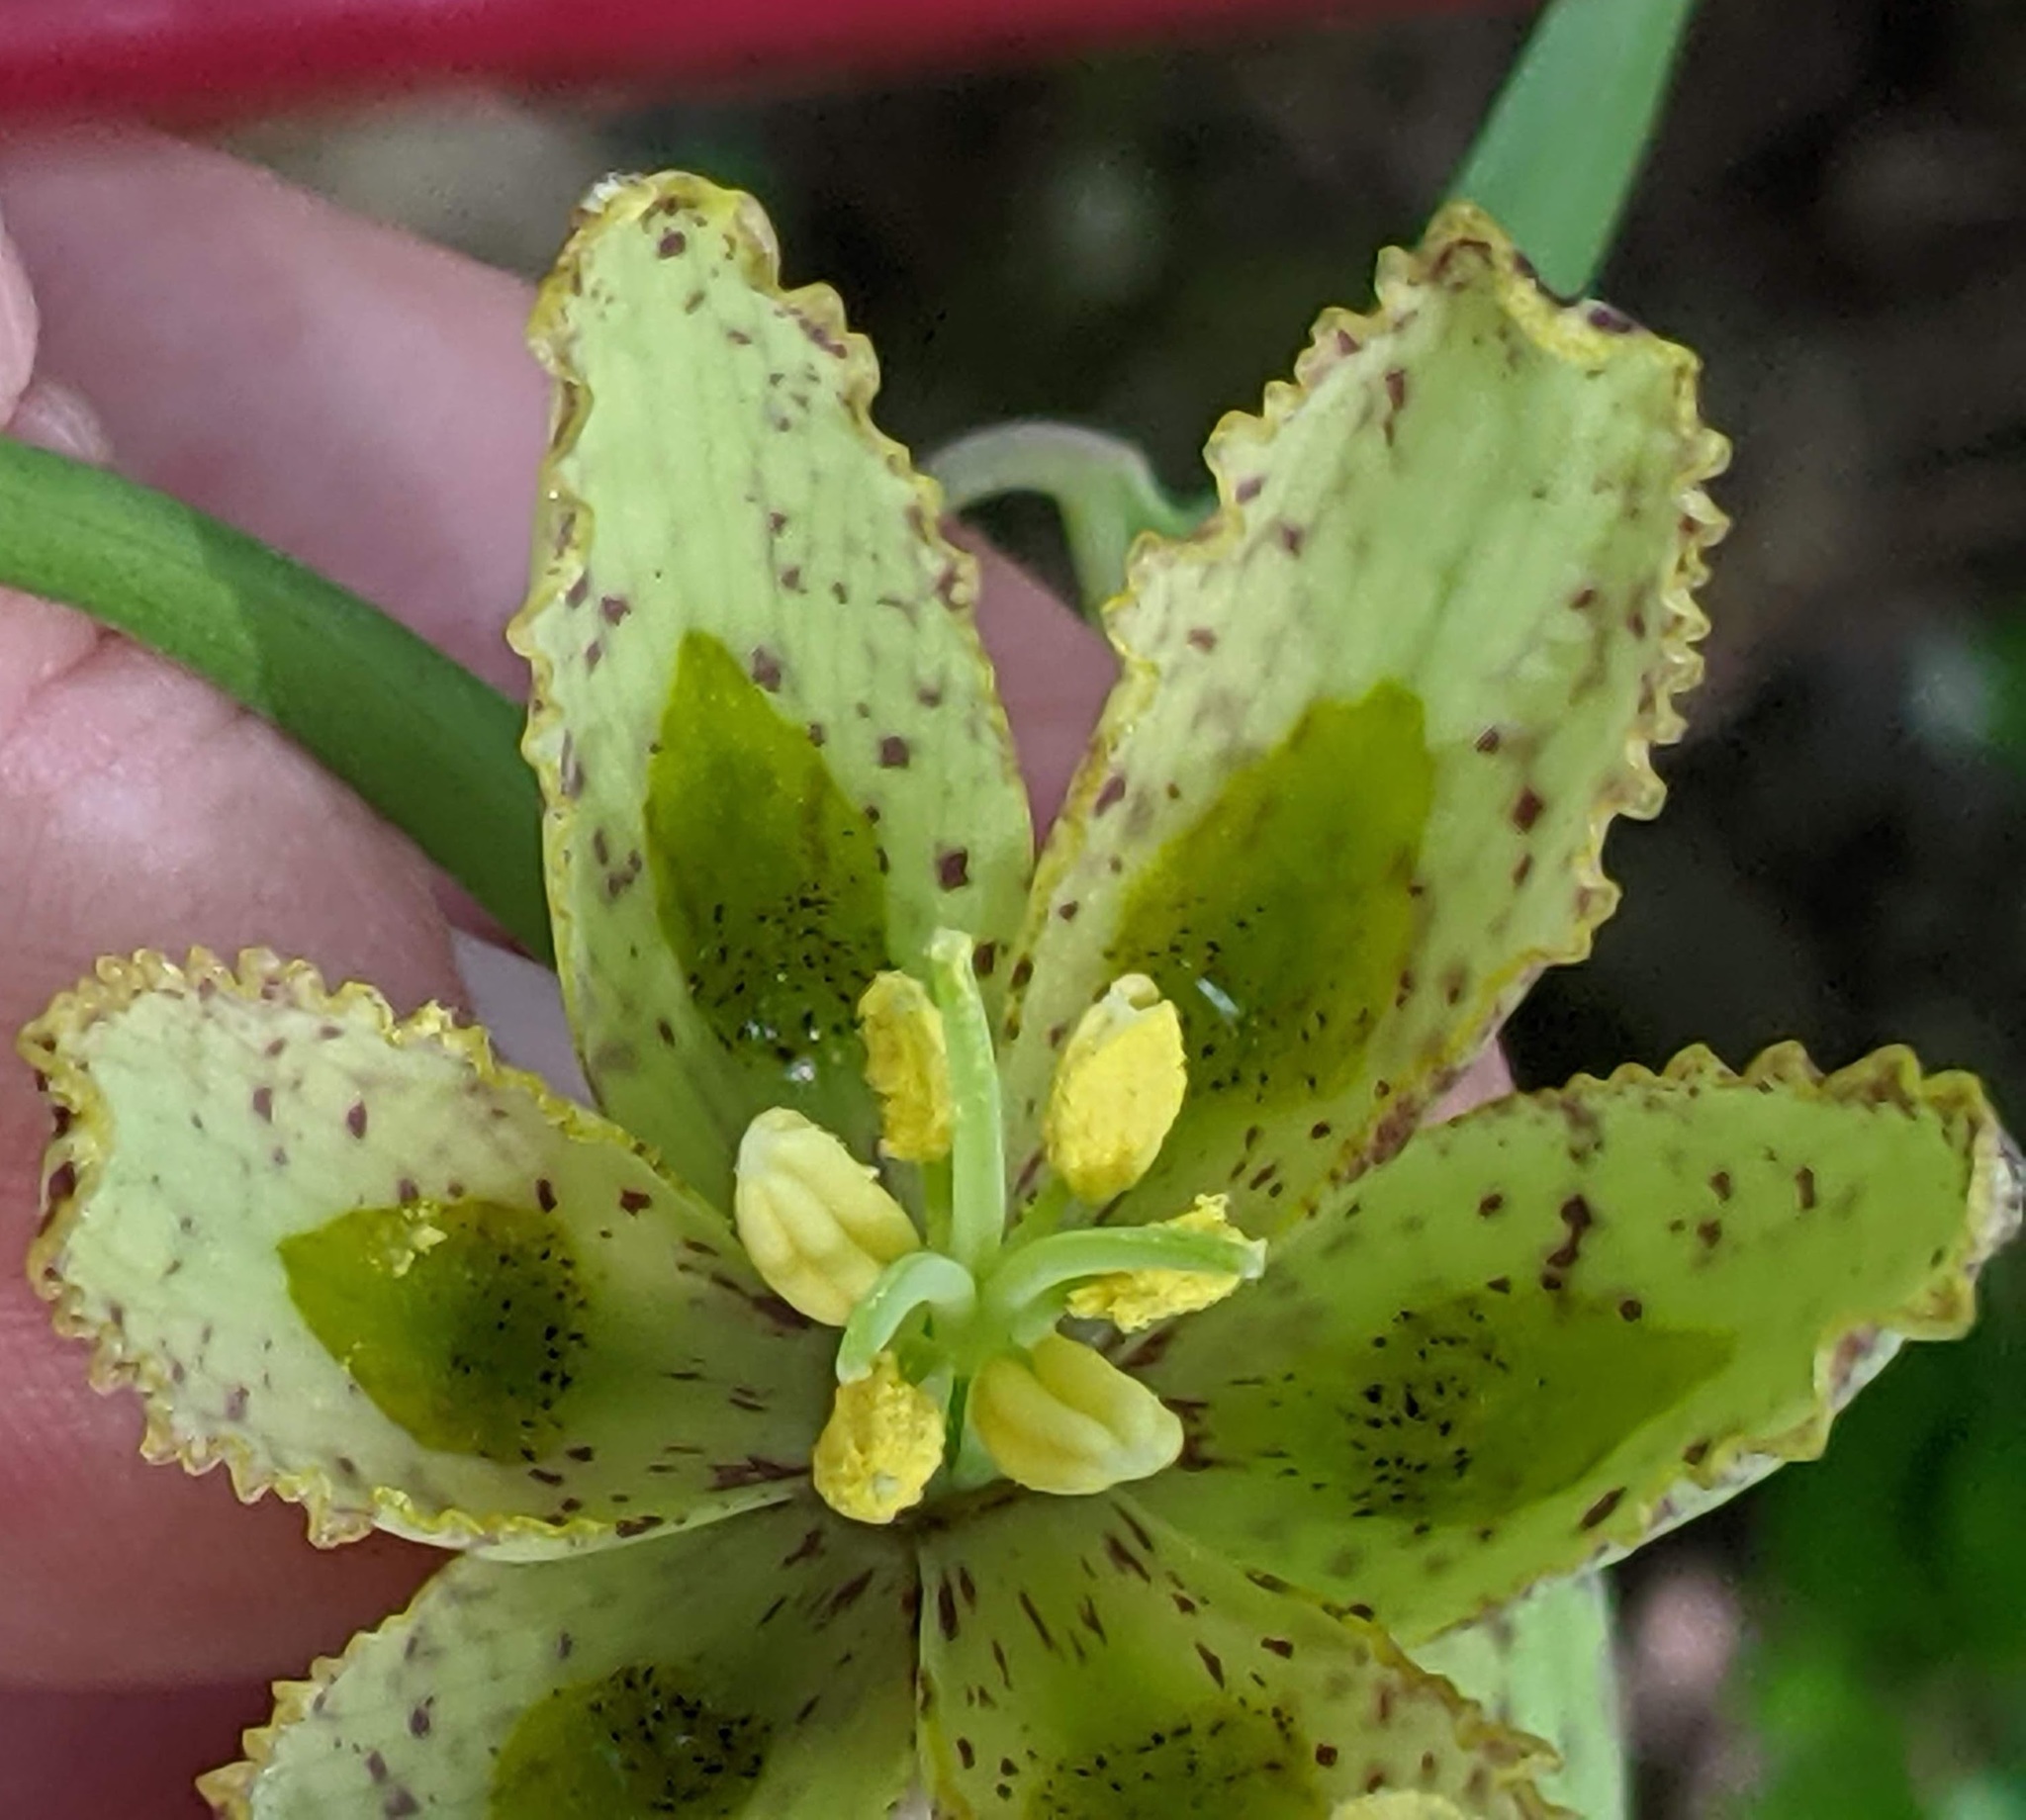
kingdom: Plantae
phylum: Tracheophyta
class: Liliopsida
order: Liliales
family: Liliaceae
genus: Fritillaria
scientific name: Fritillaria affinis
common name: Ojai fritillary
